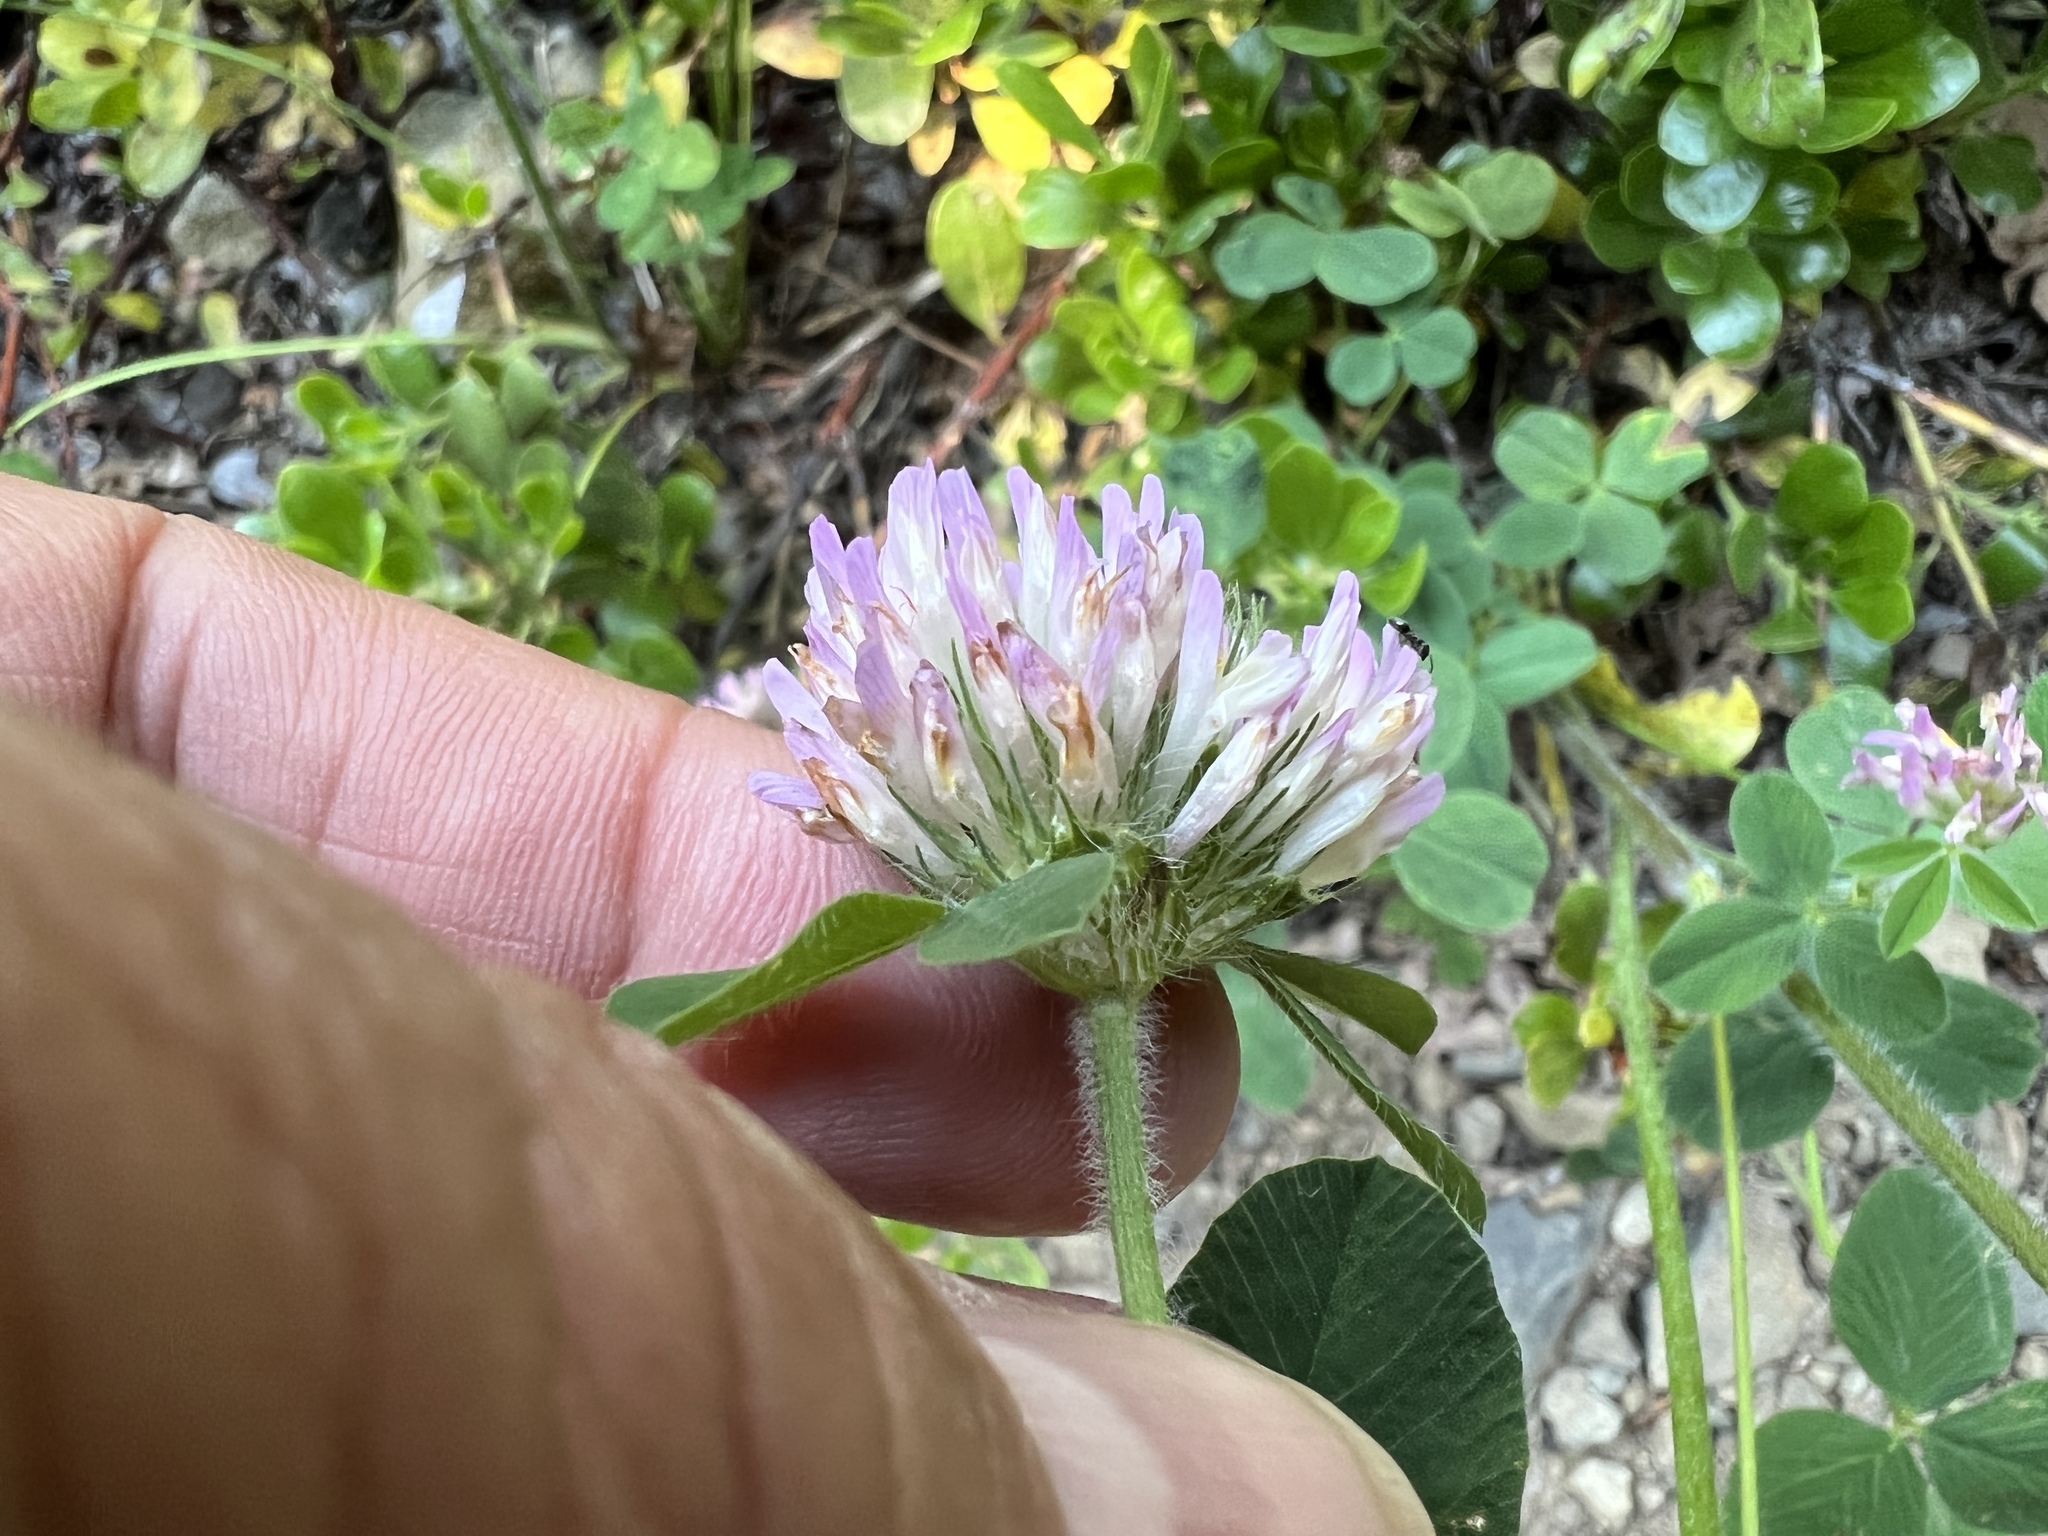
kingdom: Plantae
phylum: Tracheophyta
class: Magnoliopsida
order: Fabales
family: Fabaceae
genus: Trifolium
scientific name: Trifolium pratense
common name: Red clover
